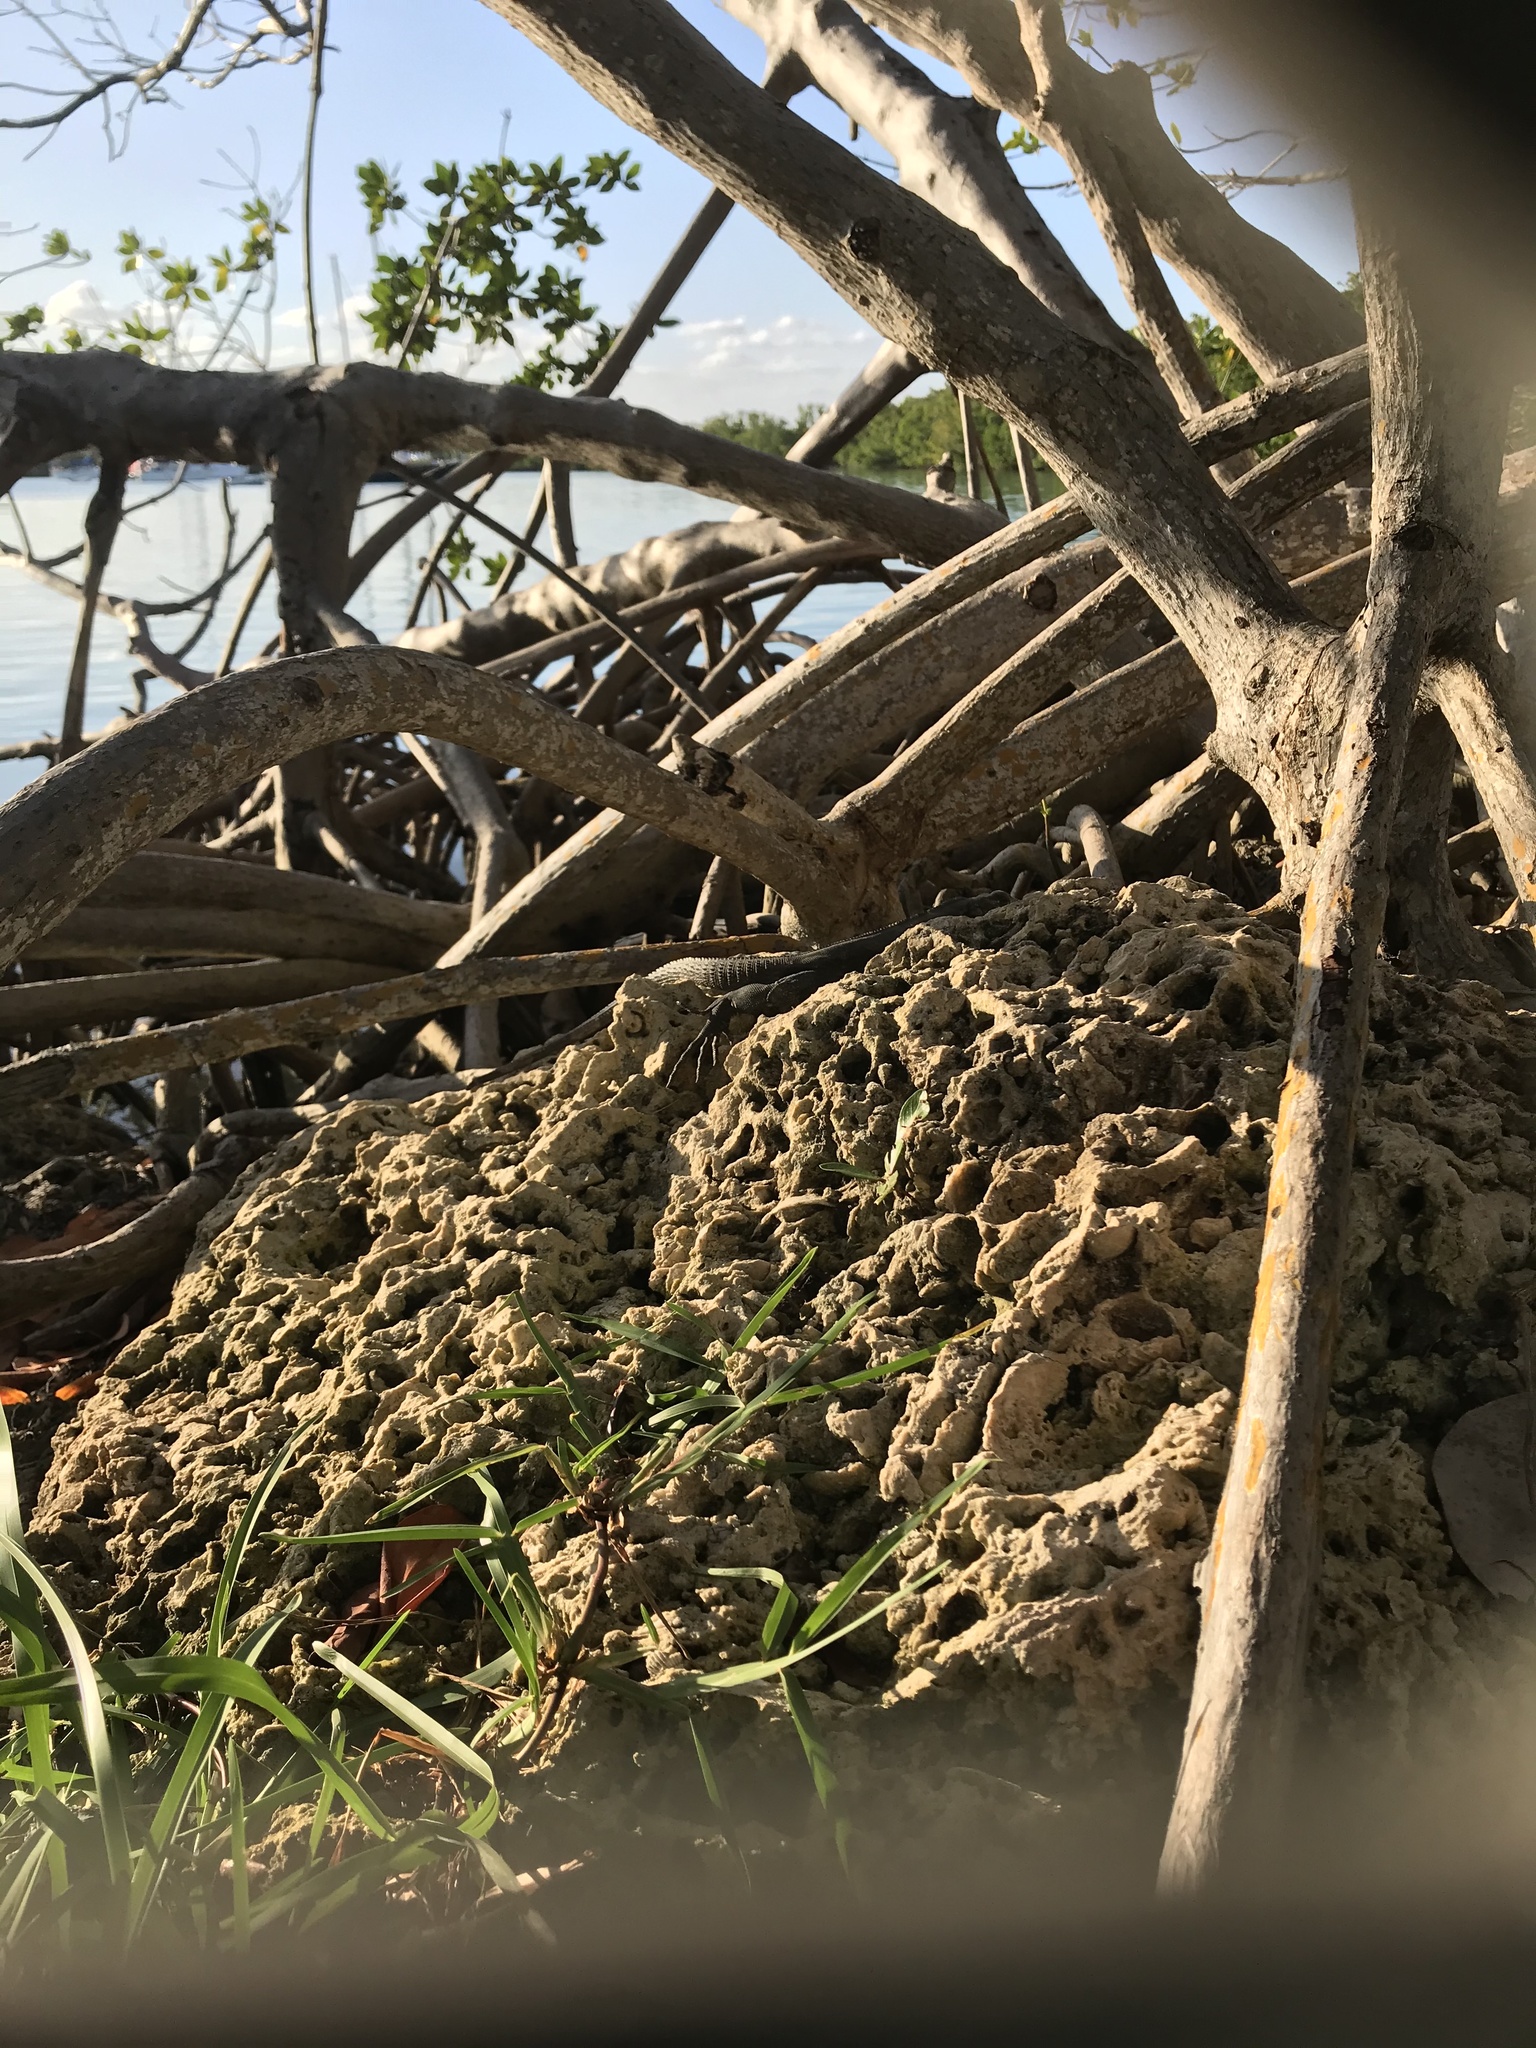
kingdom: Animalia
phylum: Chordata
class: Squamata
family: Iguanidae
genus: Ctenosaura
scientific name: Ctenosaura similis
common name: Black spiny-tailed iguana
